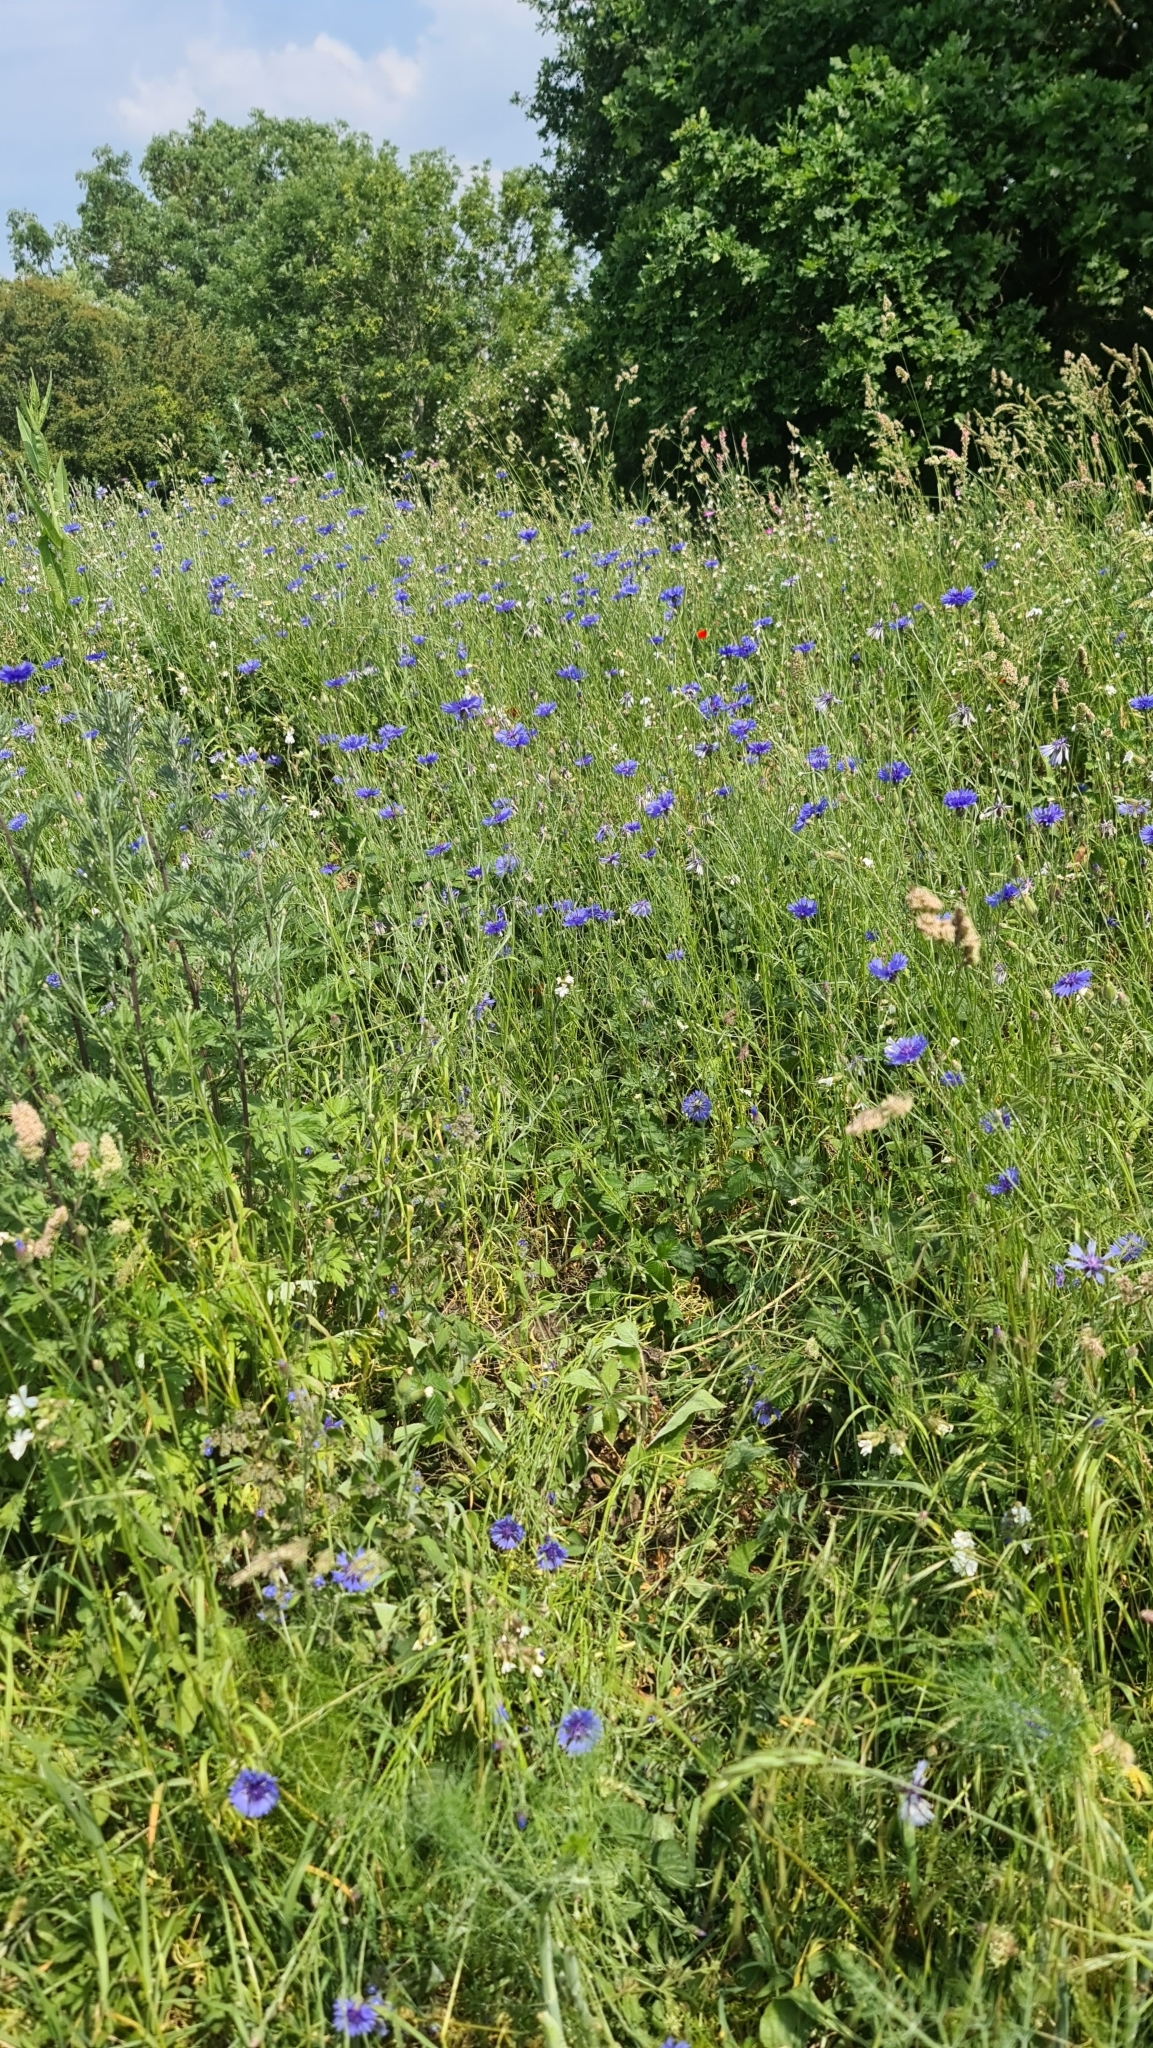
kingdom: Plantae
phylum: Tracheophyta
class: Magnoliopsida
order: Asterales
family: Asteraceae
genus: Centaurea
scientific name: Centaurea cyanus
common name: Cornflower
